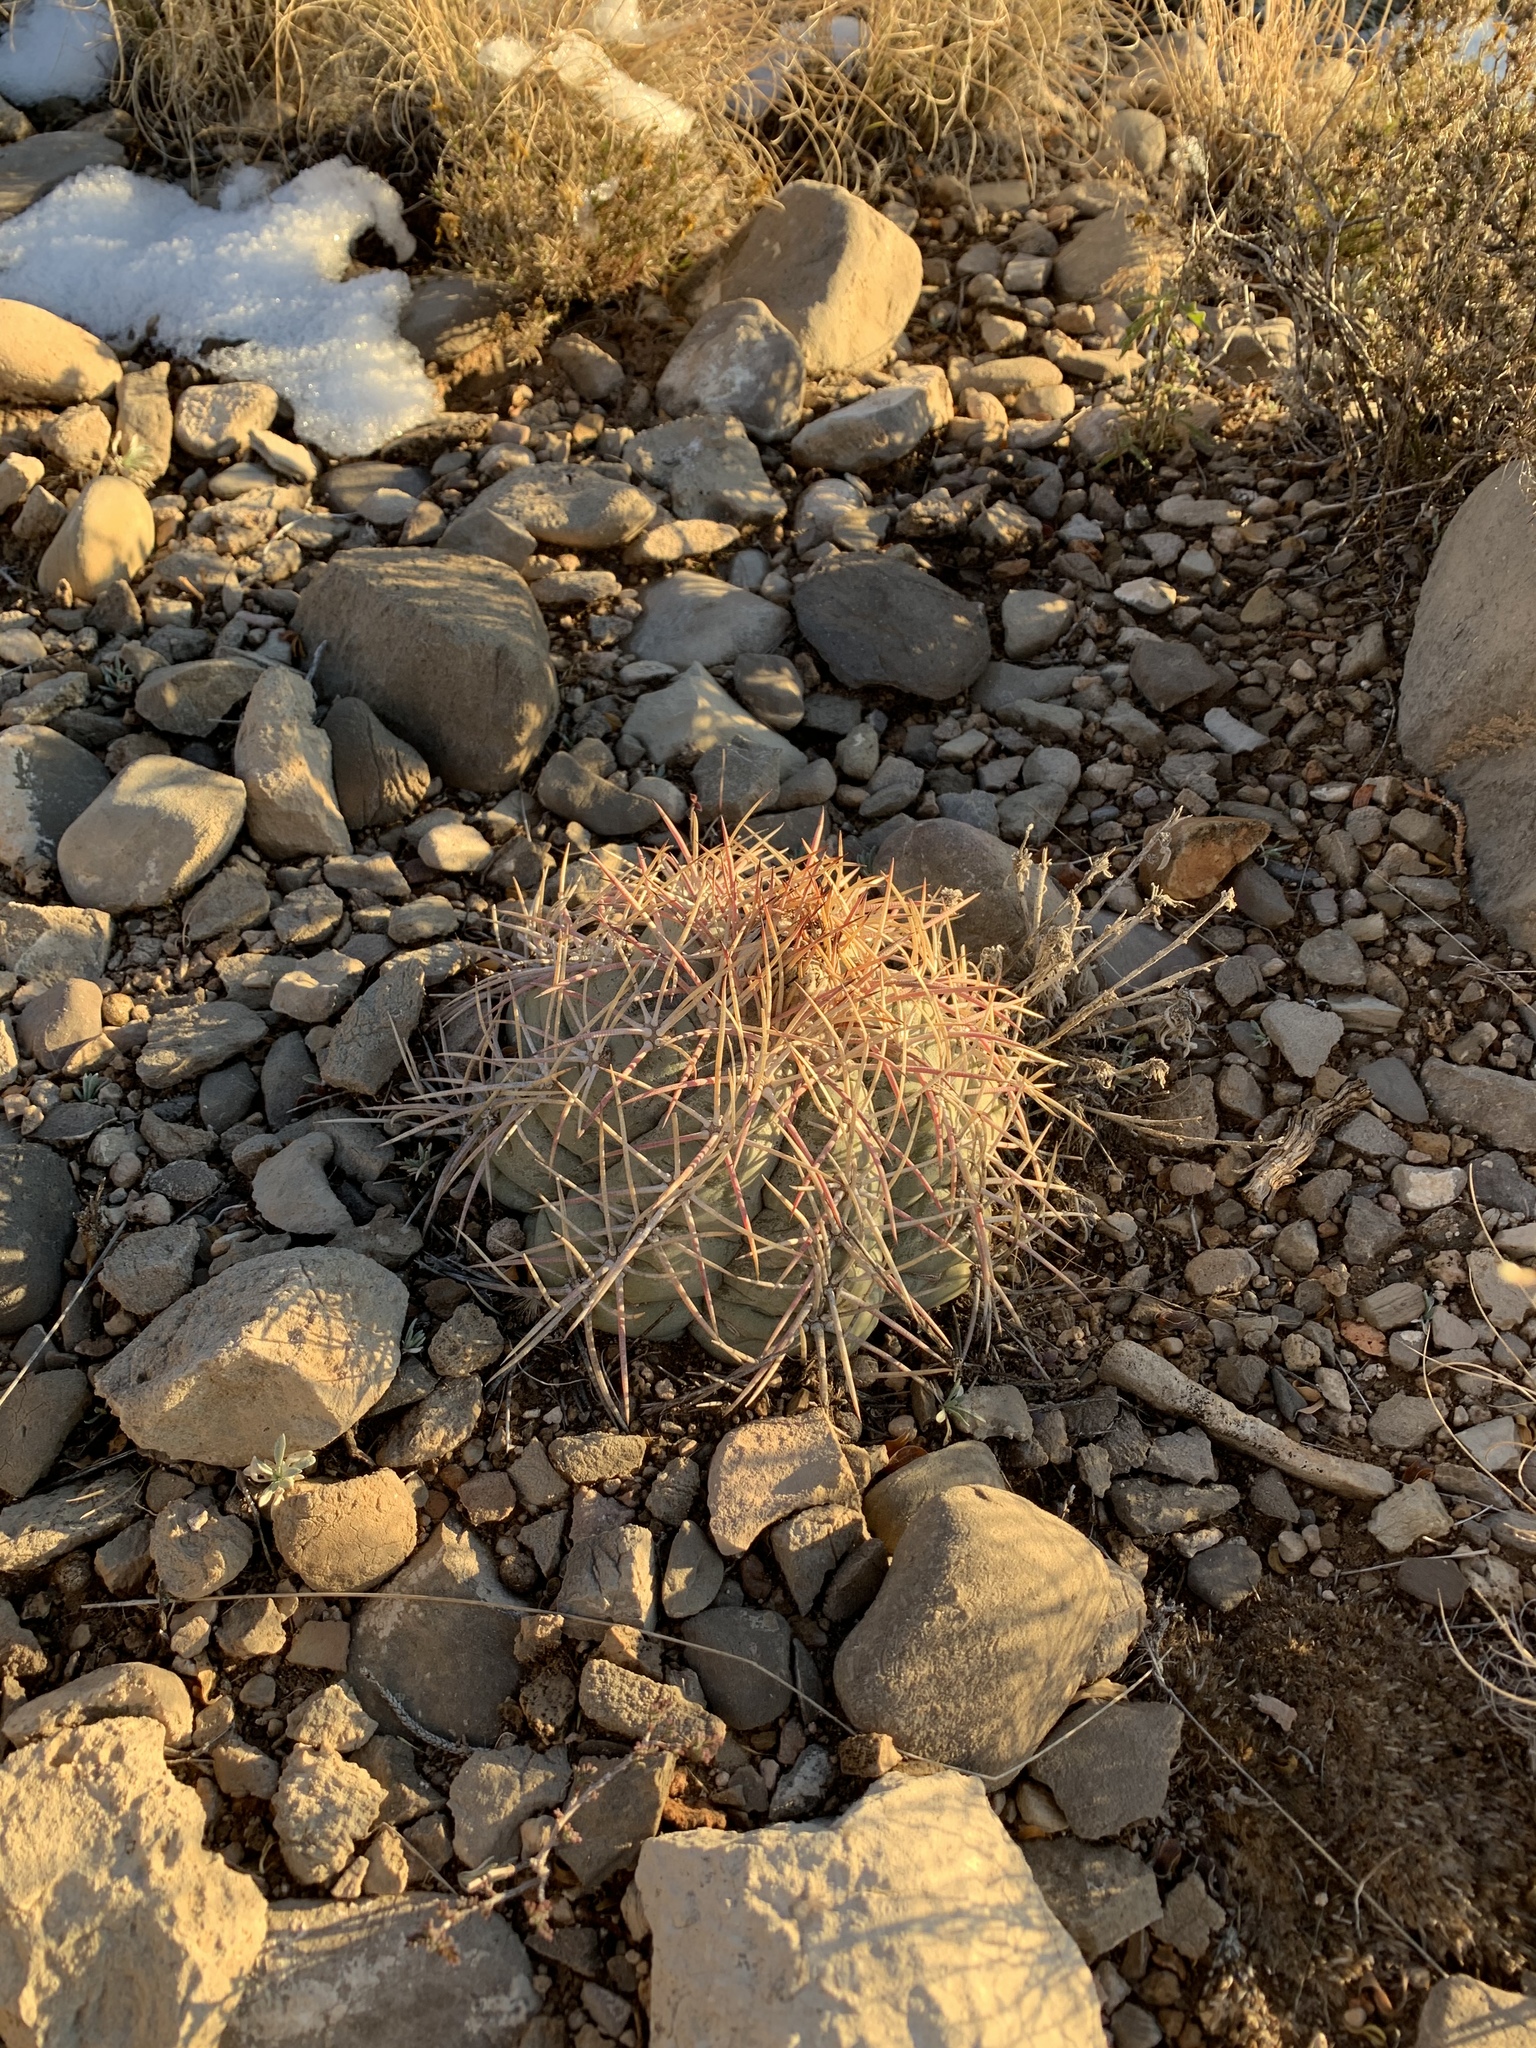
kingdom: Plantae
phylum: Tracheophyta
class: Magnoliopsida
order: Caryophyllales
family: Cactaceae
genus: Echinocactus
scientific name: Echinocactus horizonthalonius
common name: Devilshead
